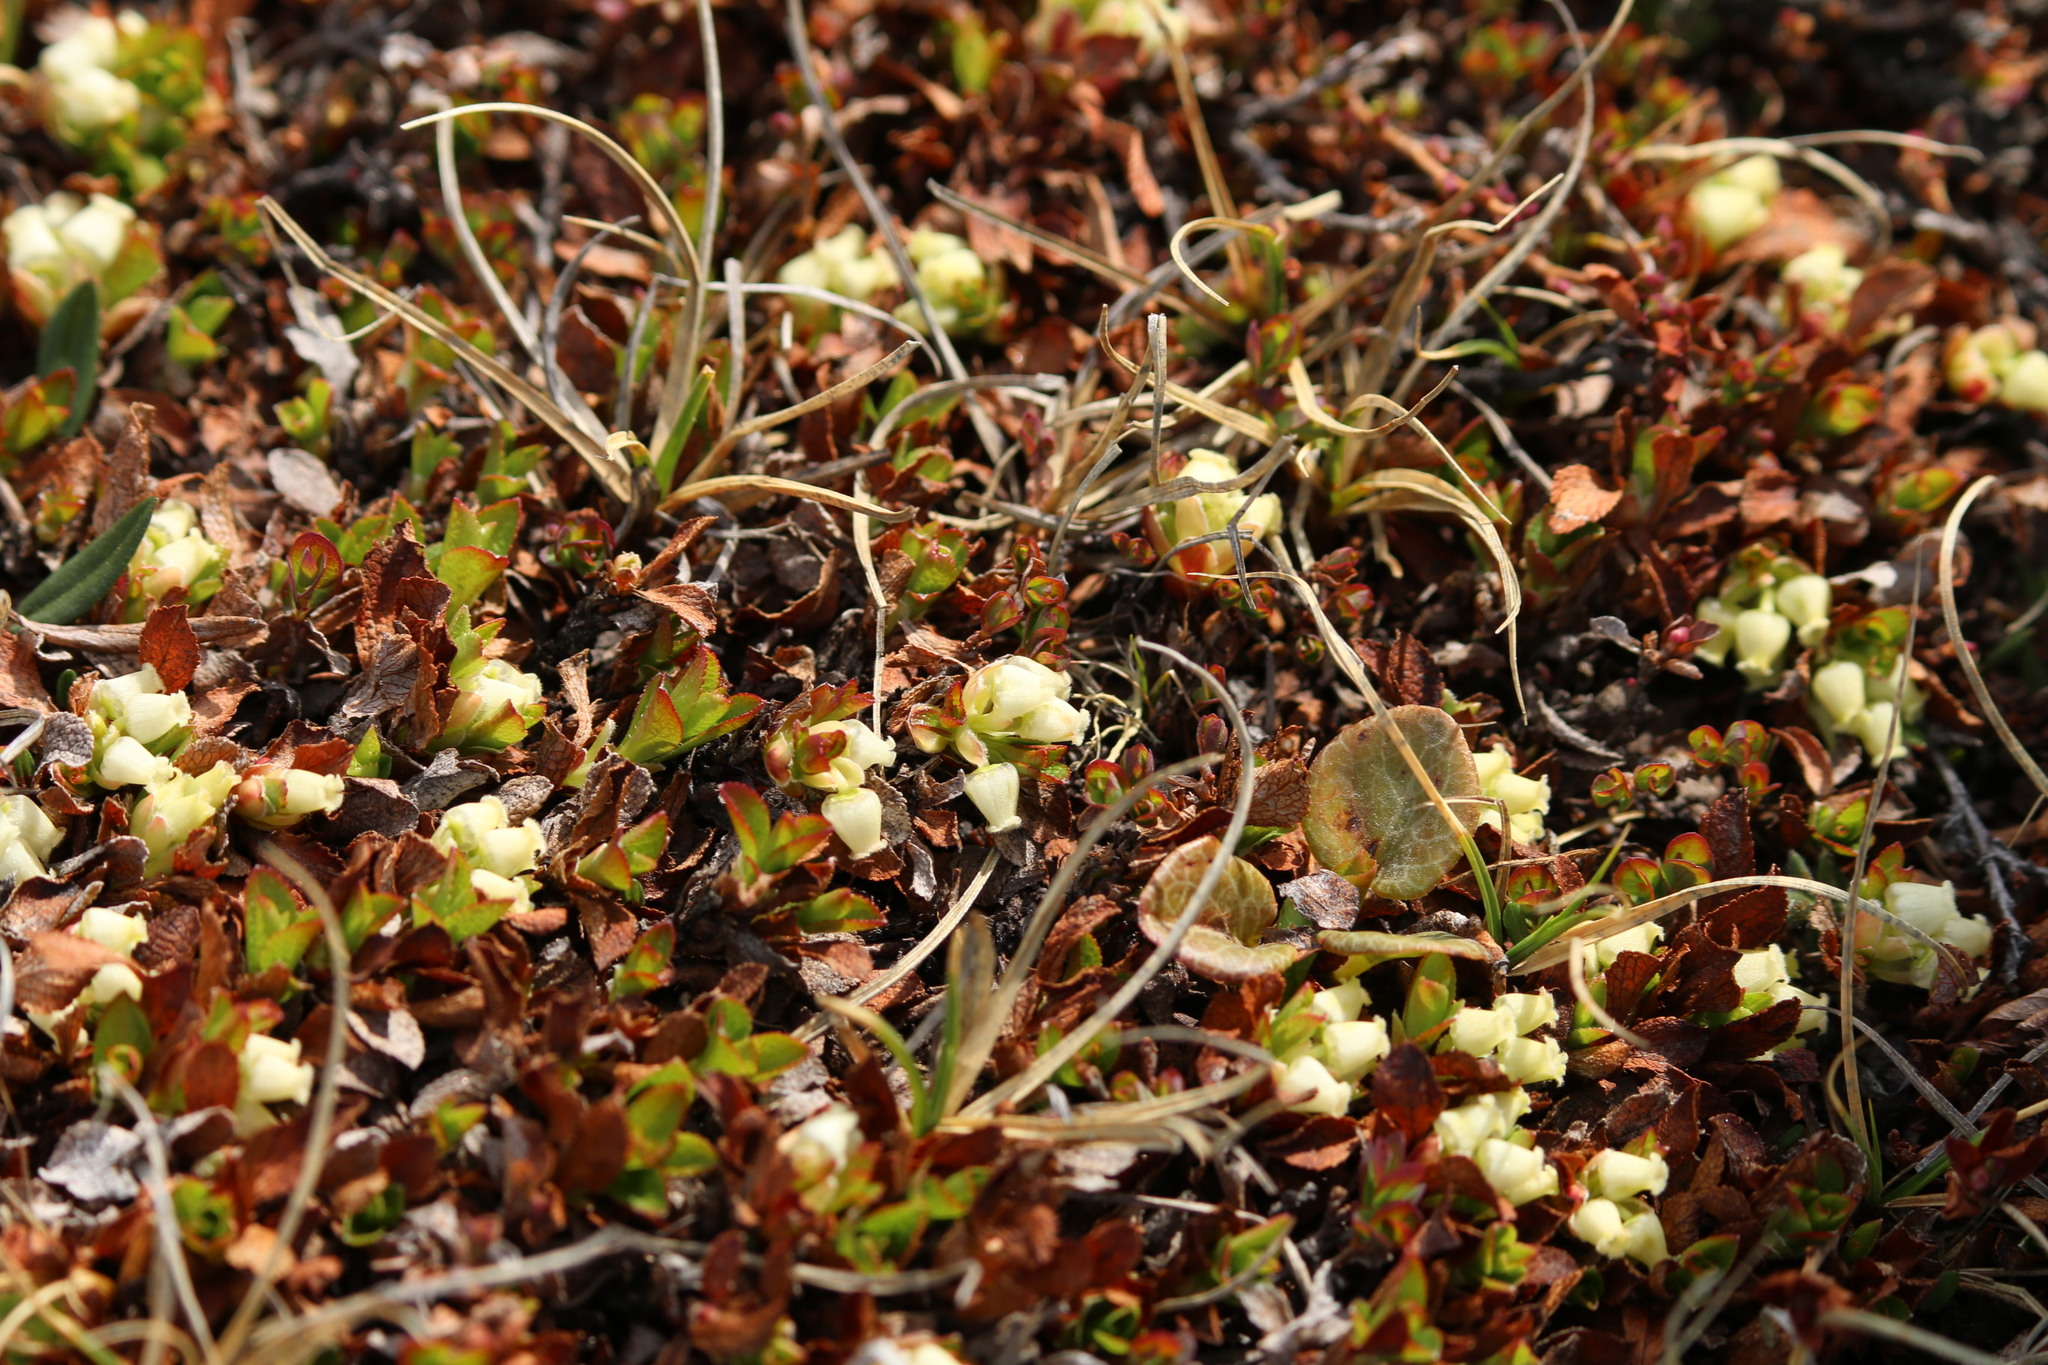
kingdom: Plantae
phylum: Tracheophyta
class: Magnoliopsida
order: Ericales
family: Ericaceae
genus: Arctostaphylos
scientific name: Arctostaphylos alpinus
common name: Alpine bearberry
